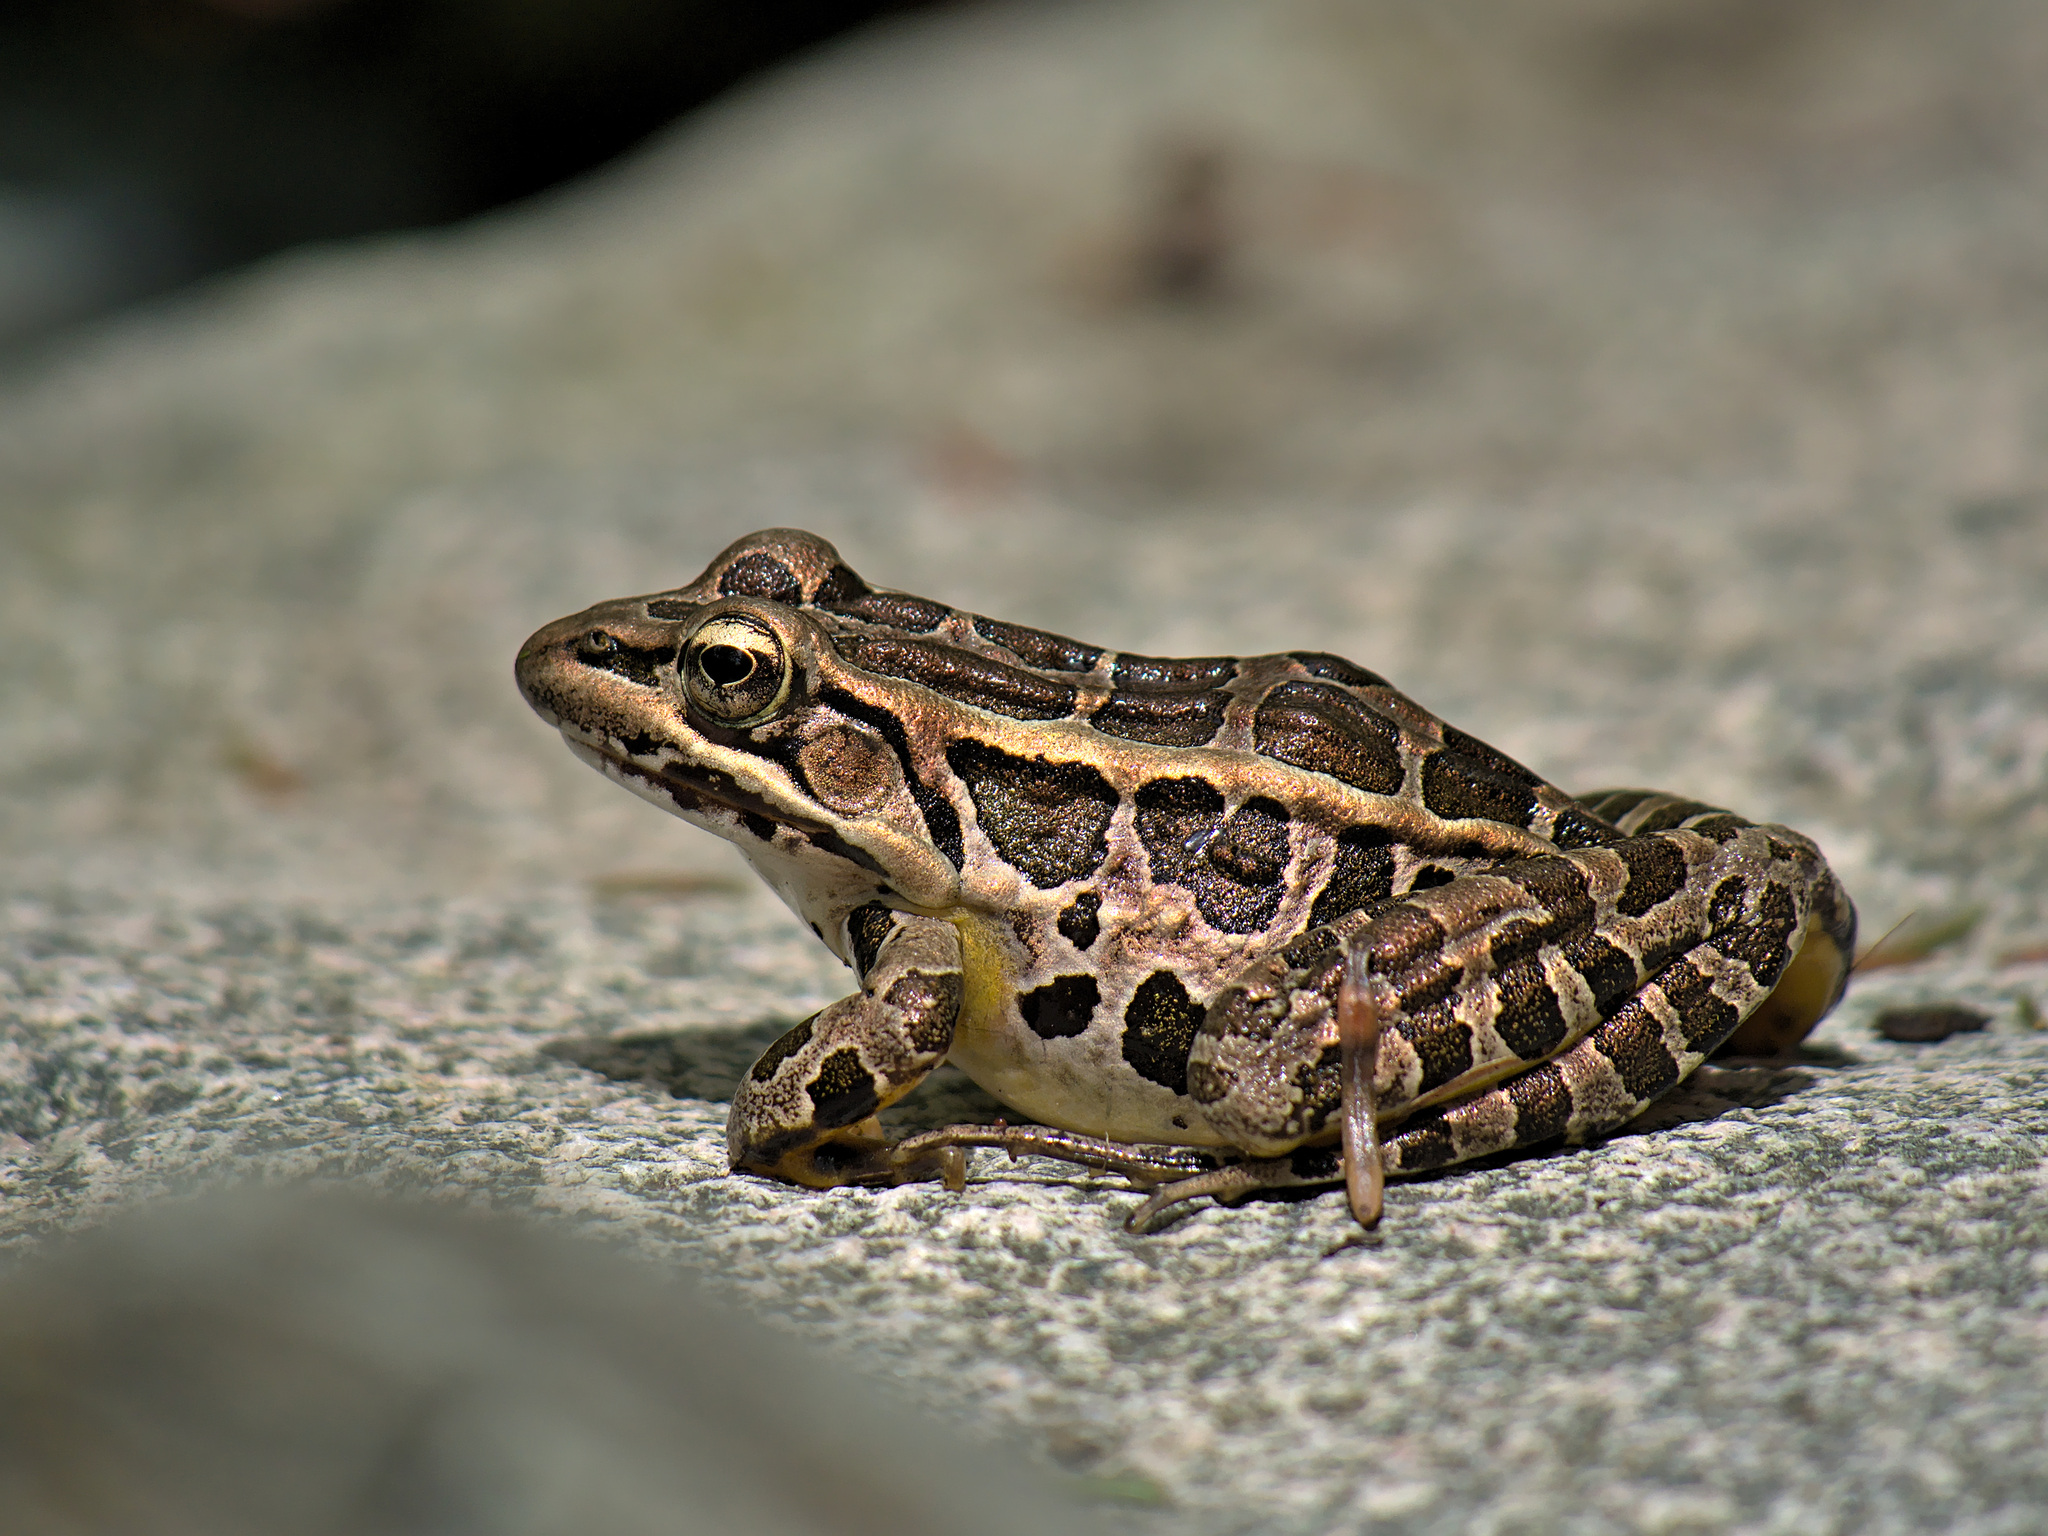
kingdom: Animalia
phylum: Chordata
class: Amphibia
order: Anura
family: Ranidae
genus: Lithobates
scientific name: Lithobates palustris
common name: Pickerel frog
